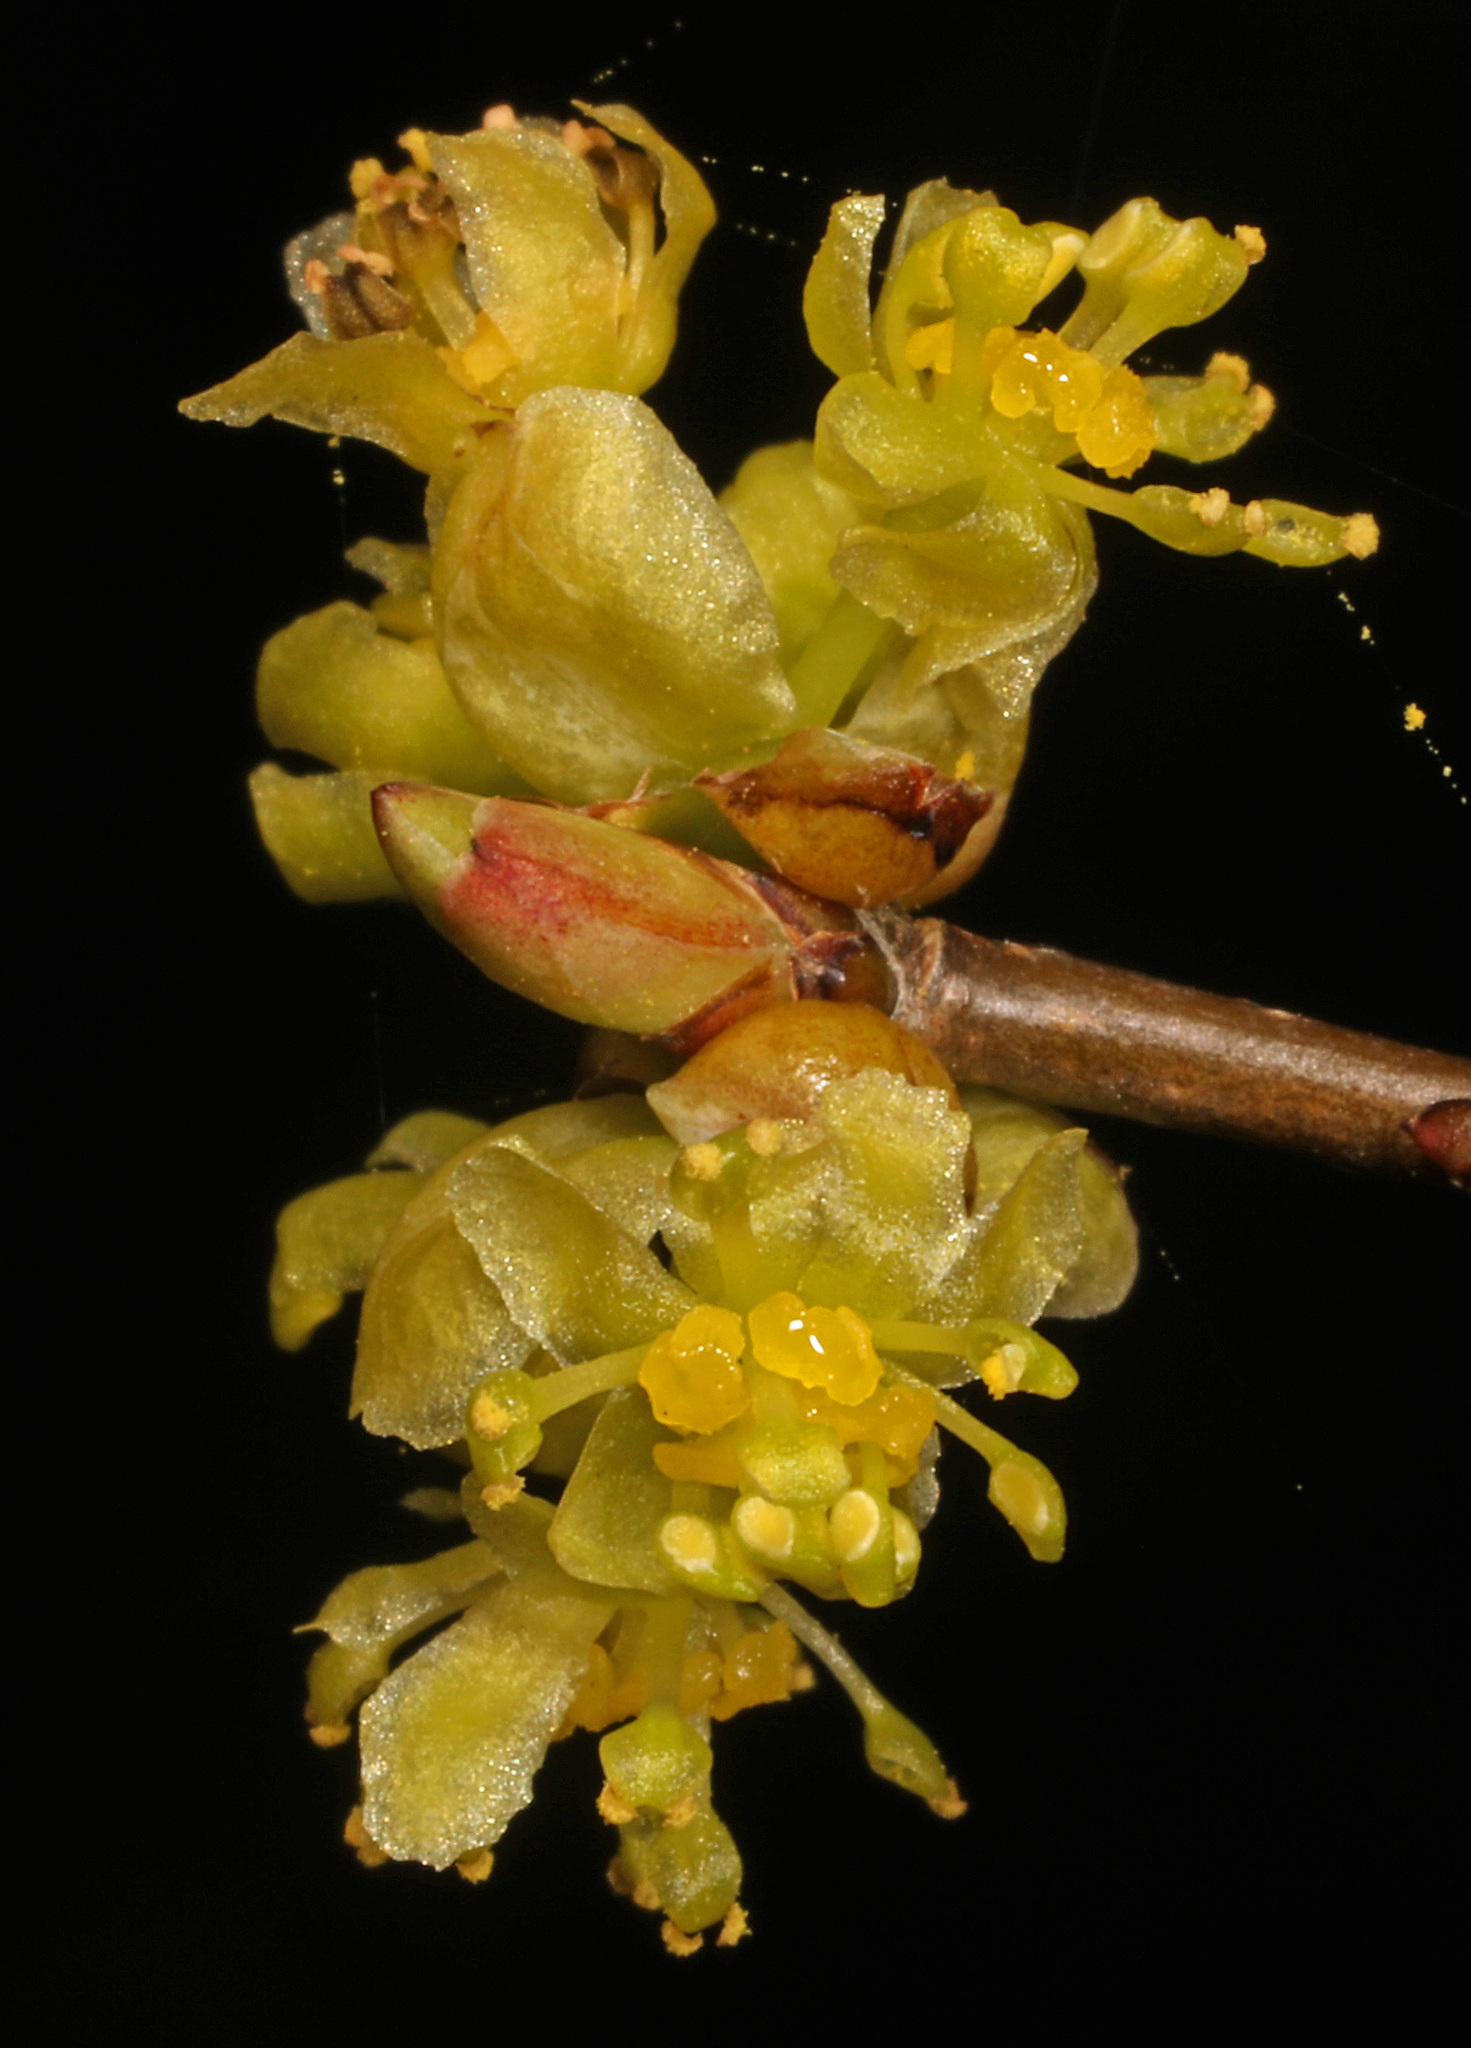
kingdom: Plantae
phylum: Tracheophyta
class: Magnoliopsida
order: Laurales
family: Lauraceae
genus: Lindera
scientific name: Lindera benzoin
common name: Spicebush
